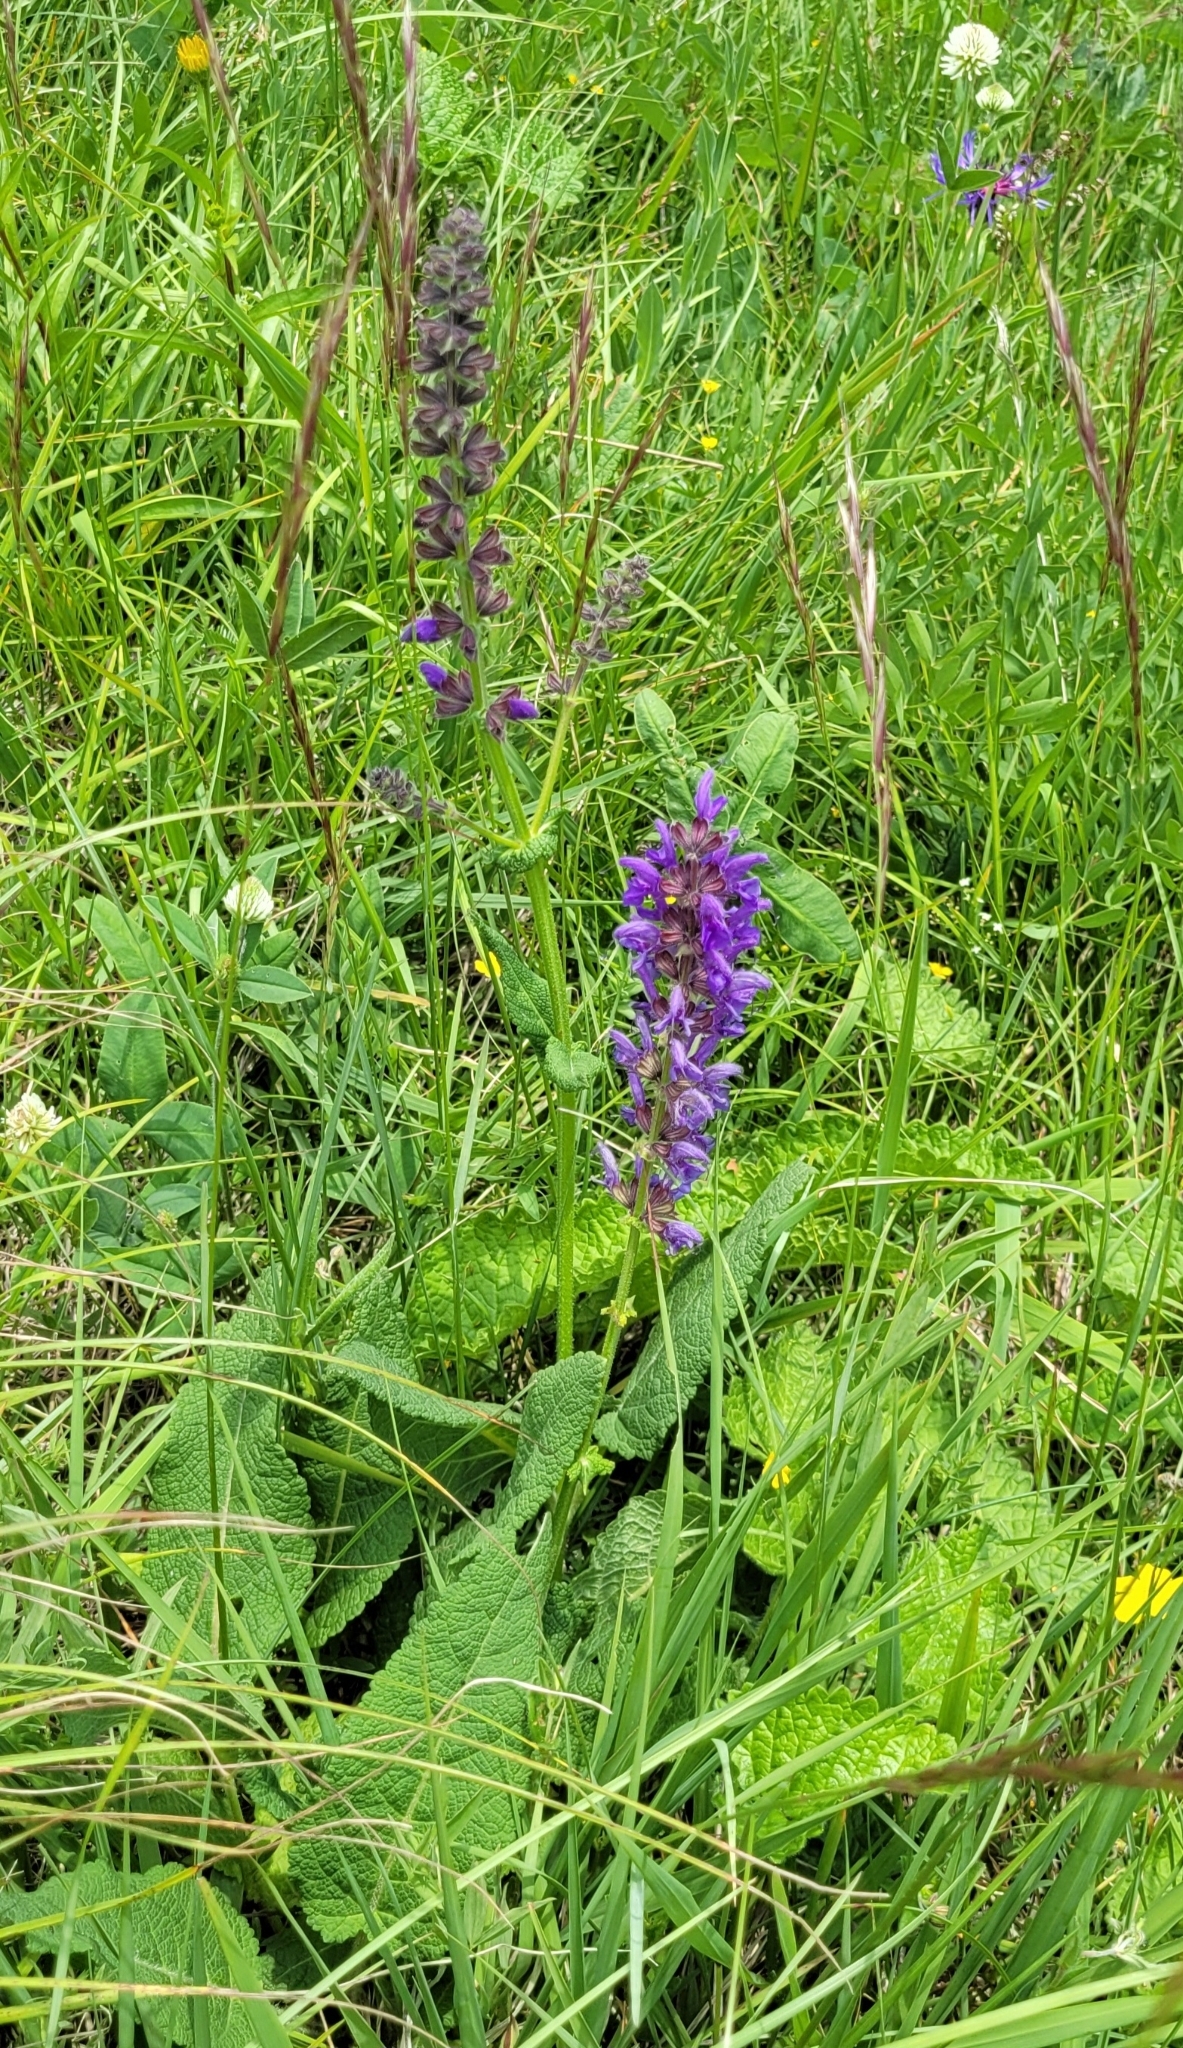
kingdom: Plantae
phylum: Tracheophyta
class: Magnoliopsida
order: Lamiales
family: Lamiaceae
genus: Salvia
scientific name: Salvia pratensis
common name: Meadow sage
